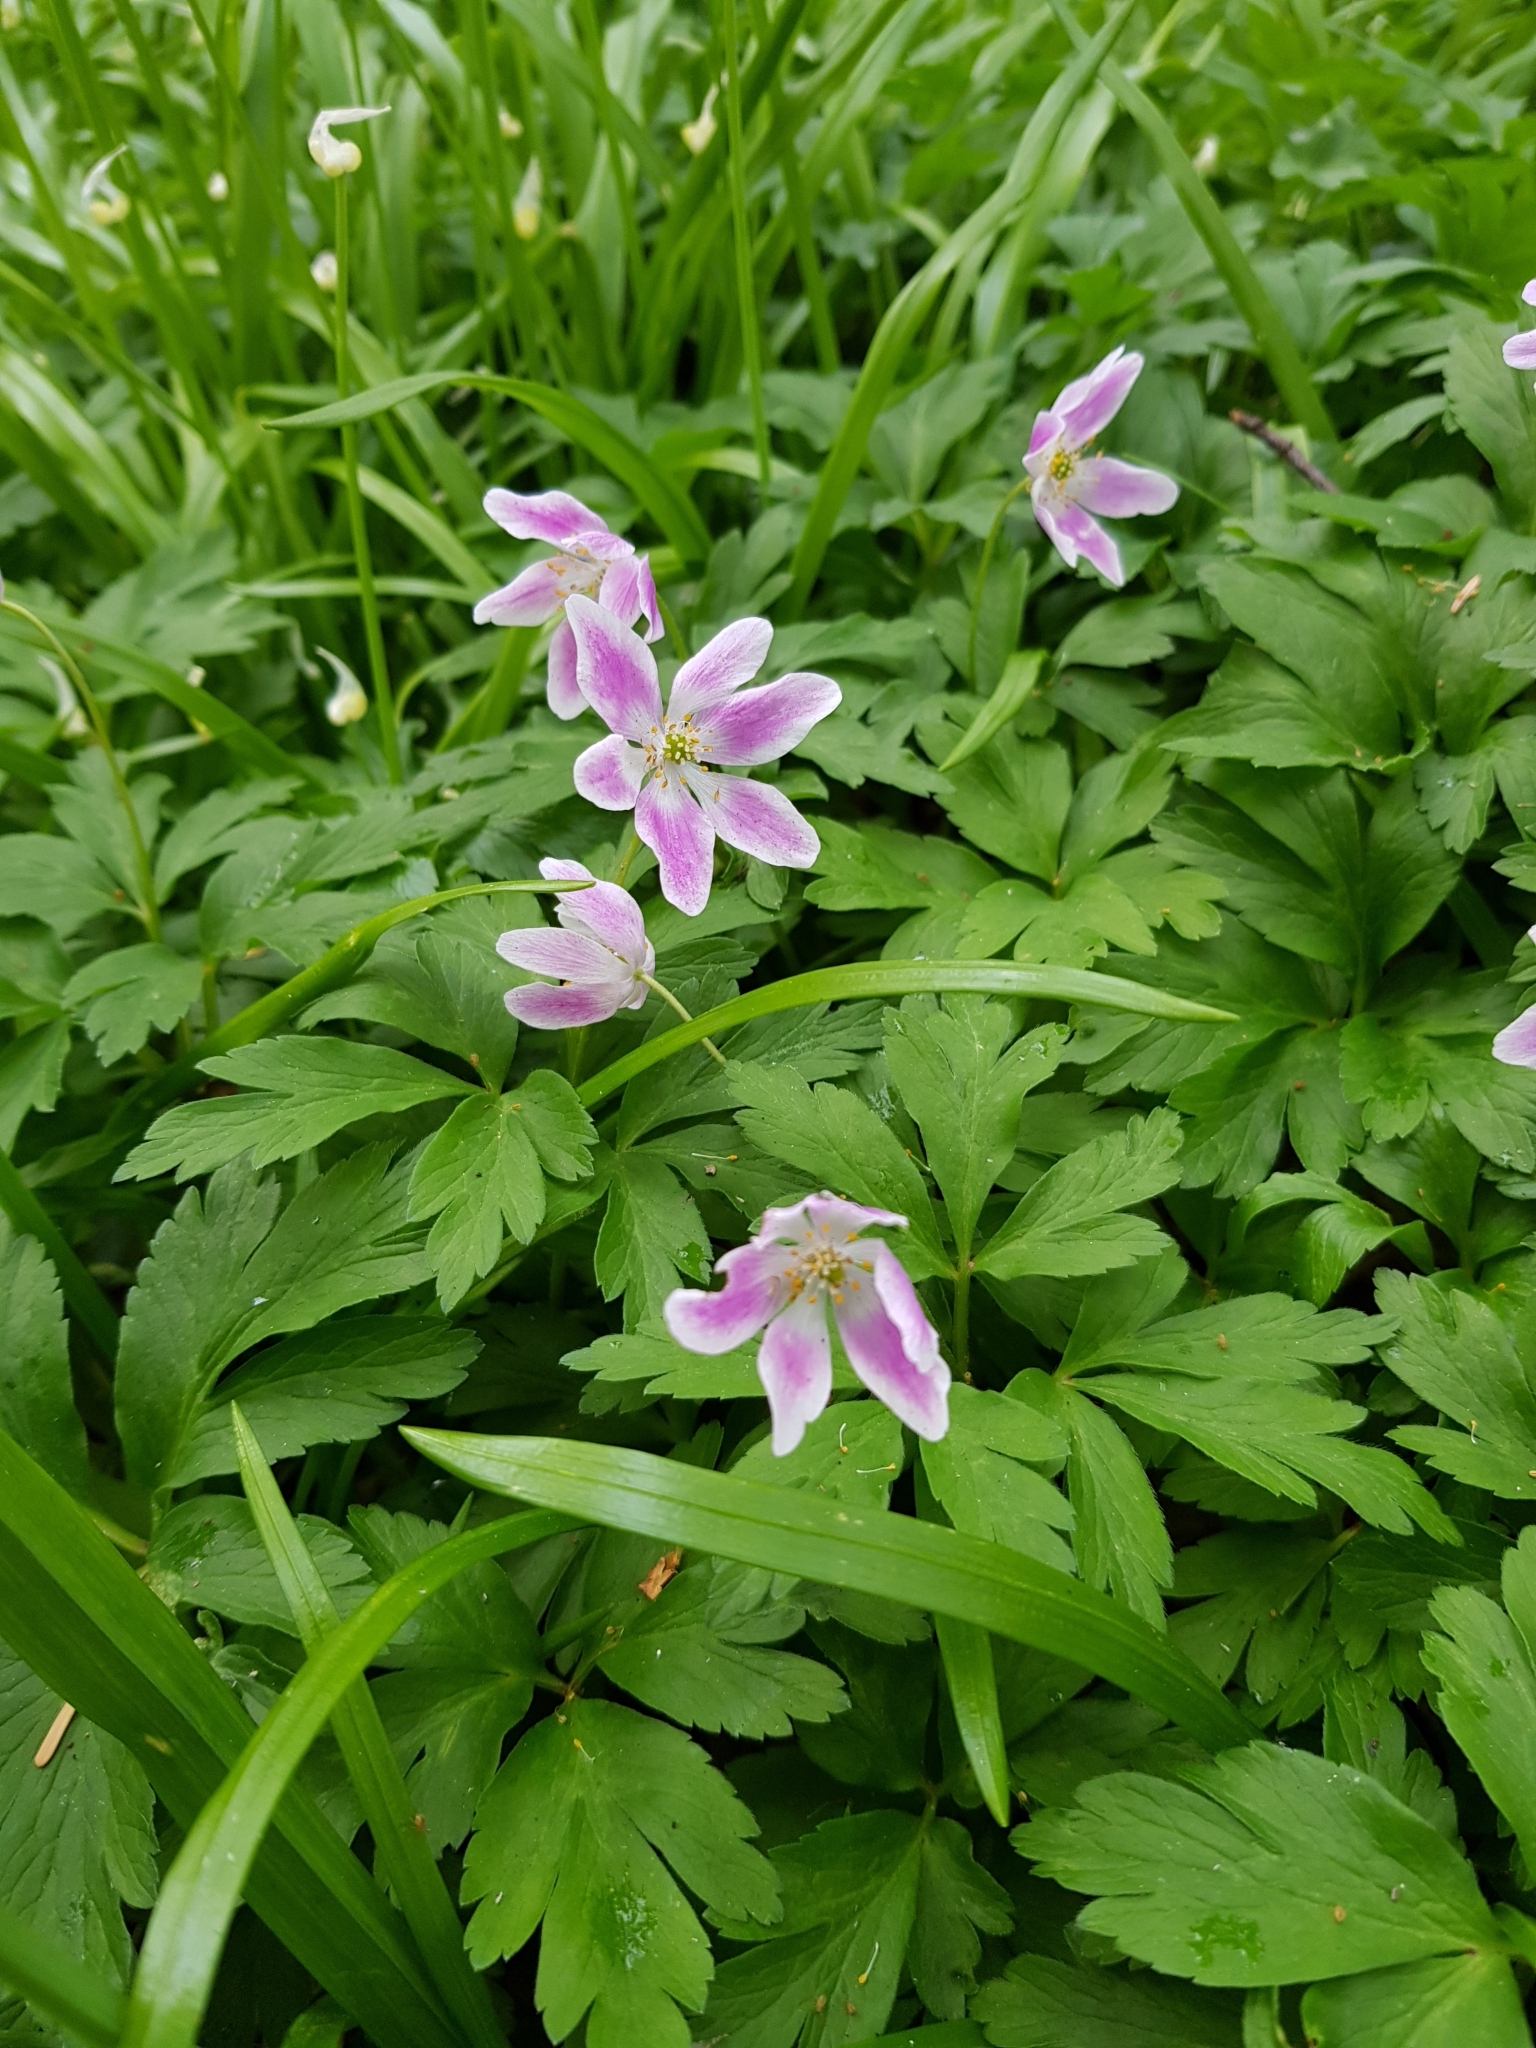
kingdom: Plantae
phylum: Tracheophyta
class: Magnoliopsida
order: Ranunculales
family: Ranunculaceae
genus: Anemone
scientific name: Anemone nemorosa
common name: Wood anemone
